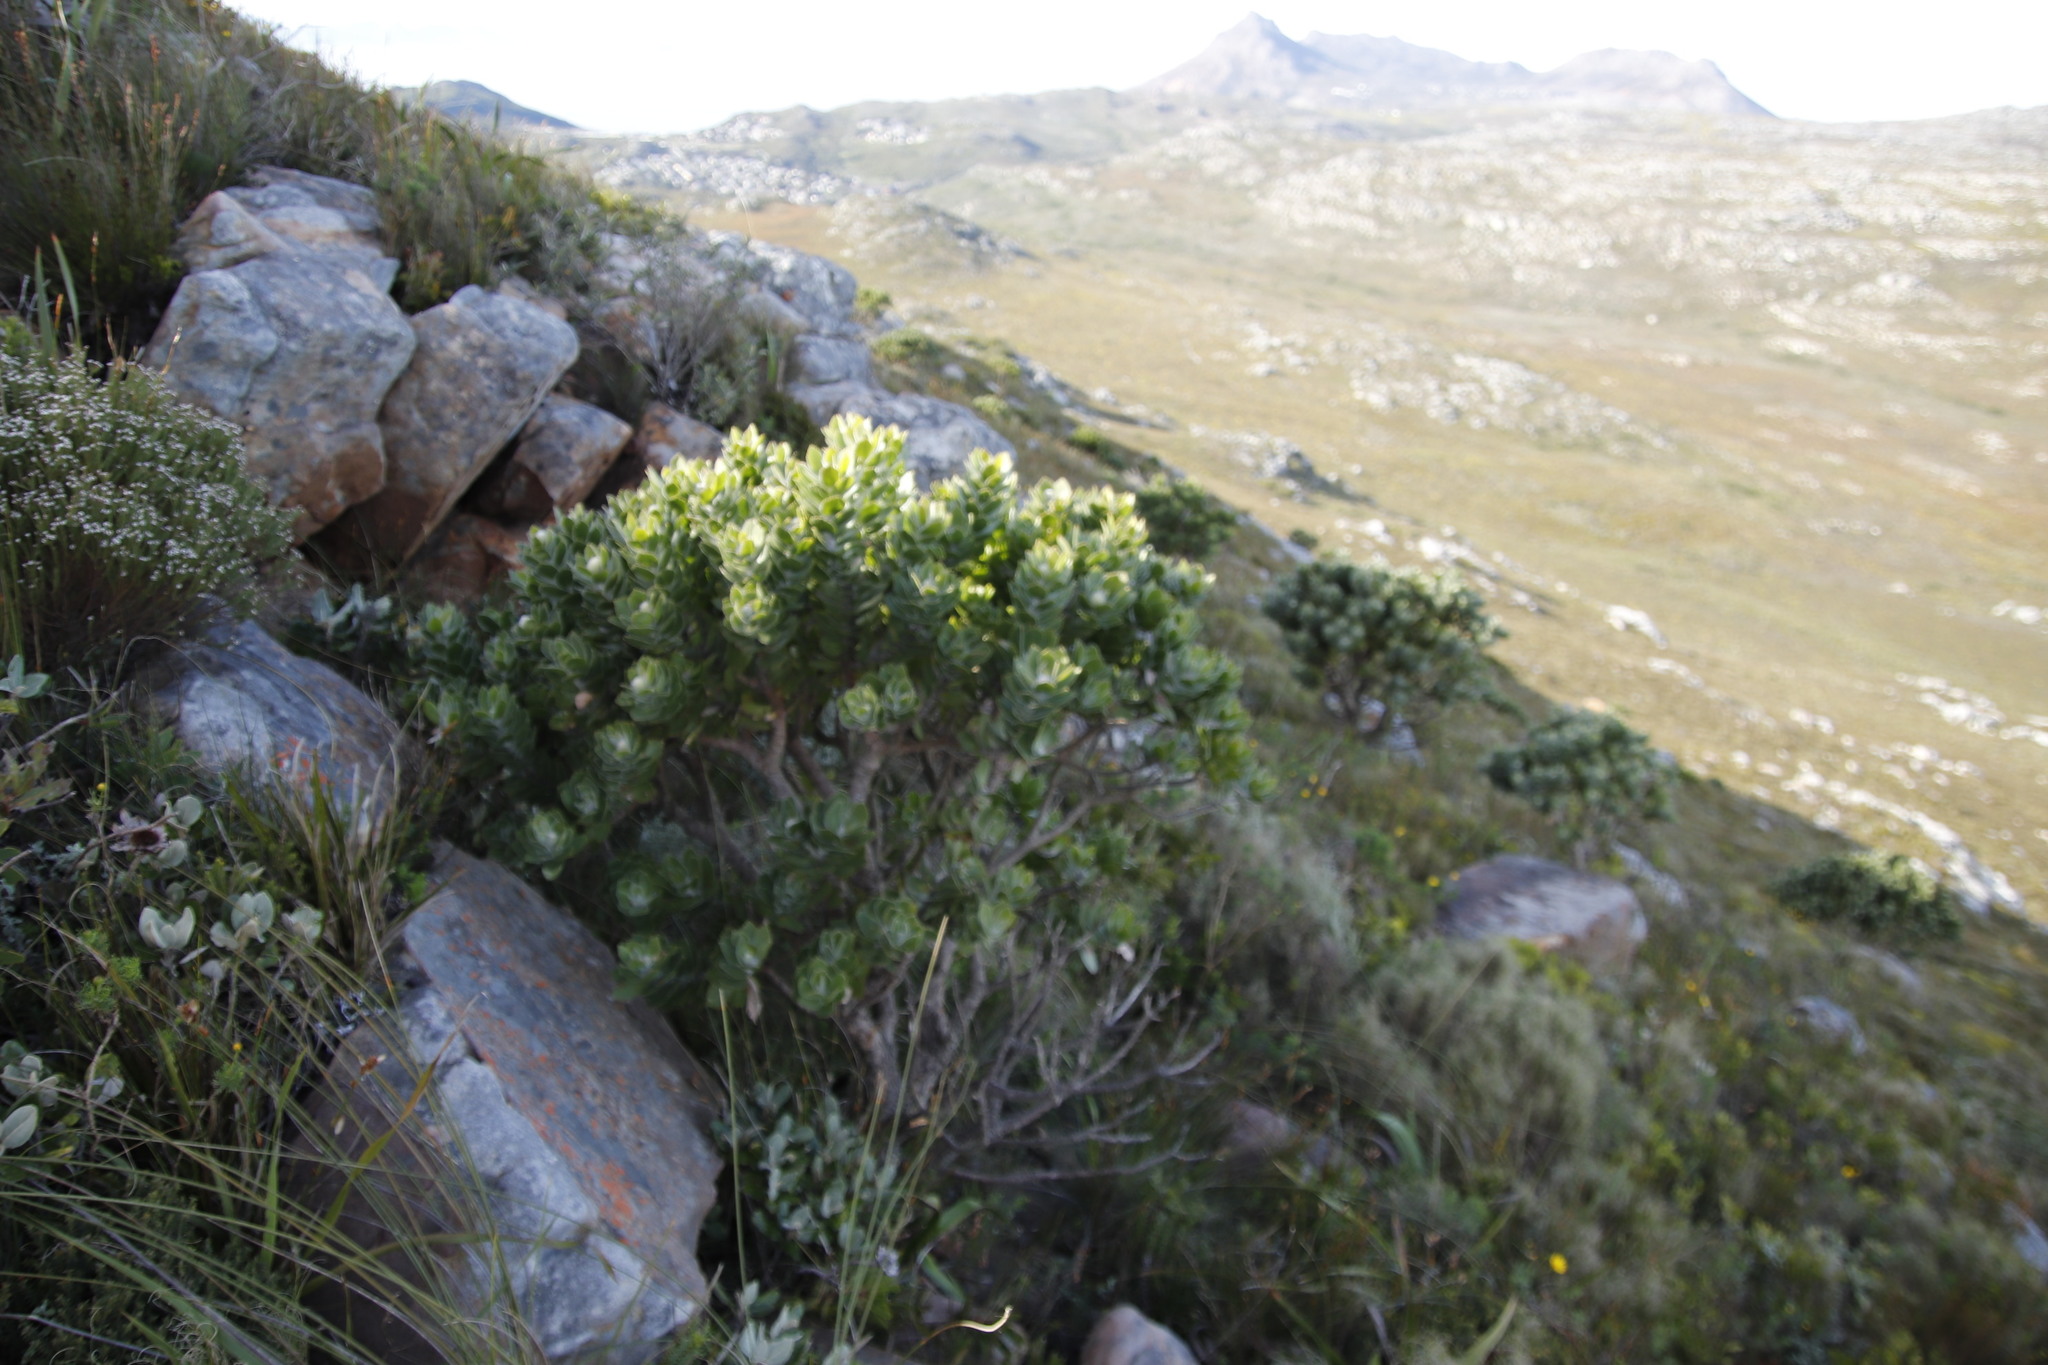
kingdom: Plantae
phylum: Tracheophyta
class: Magnoliopsida
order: Proteales
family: Proteaceae
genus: Leucospermum
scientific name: Leucospermum conocarpodendron
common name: Tree pincushion
